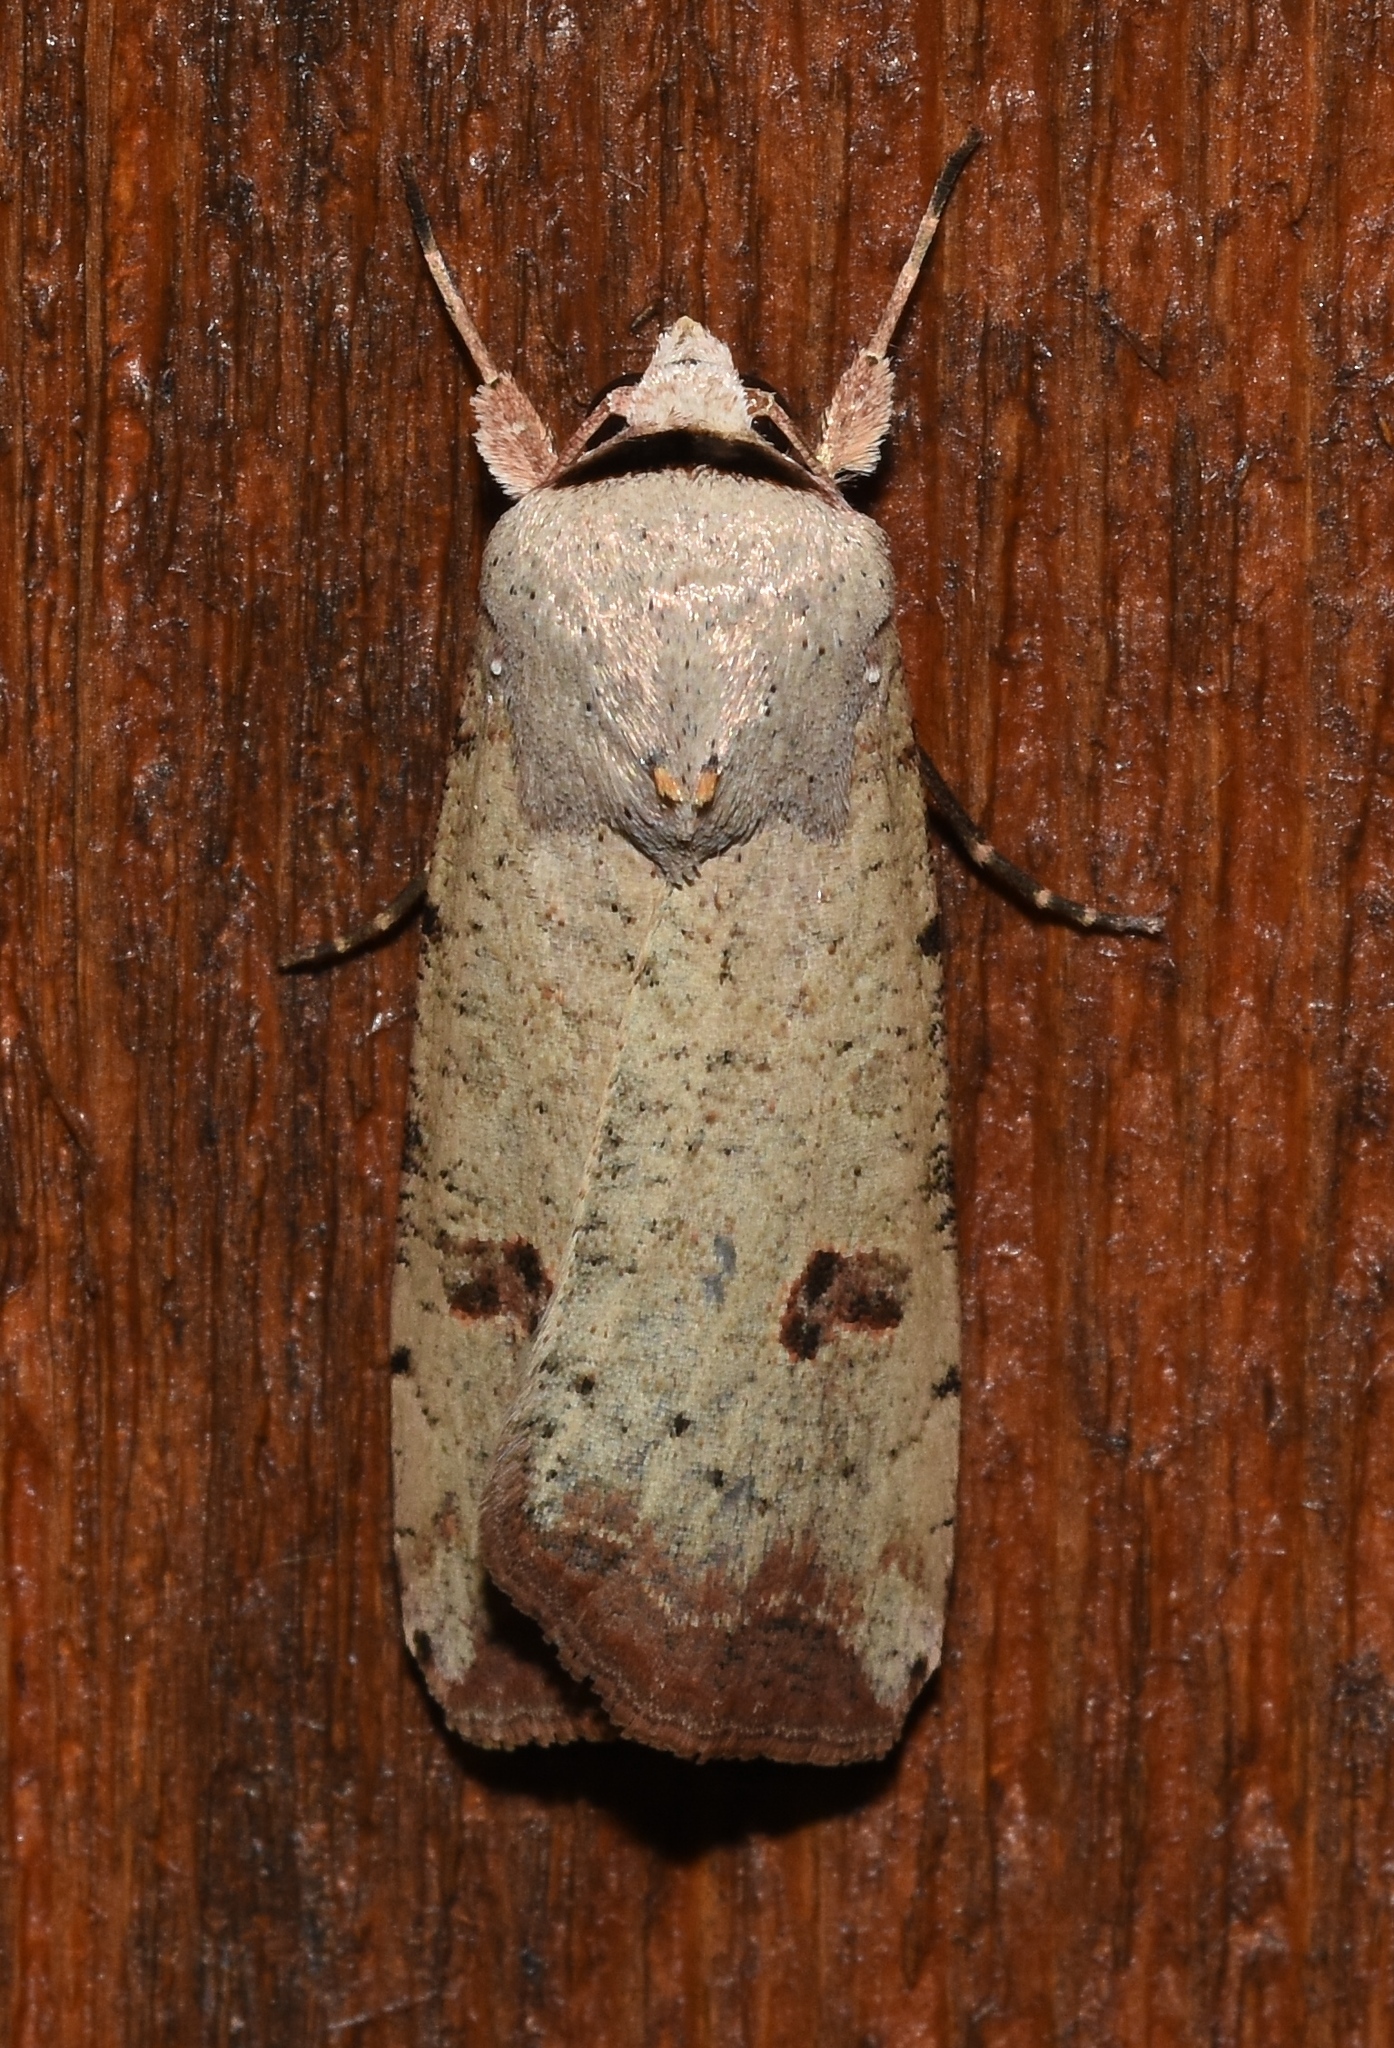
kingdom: Animalia
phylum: Arthropoda
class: Insecta
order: Lepidoptera
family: Noctuidae
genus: Anicla
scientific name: Anicla infecta
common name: Green cutworm
